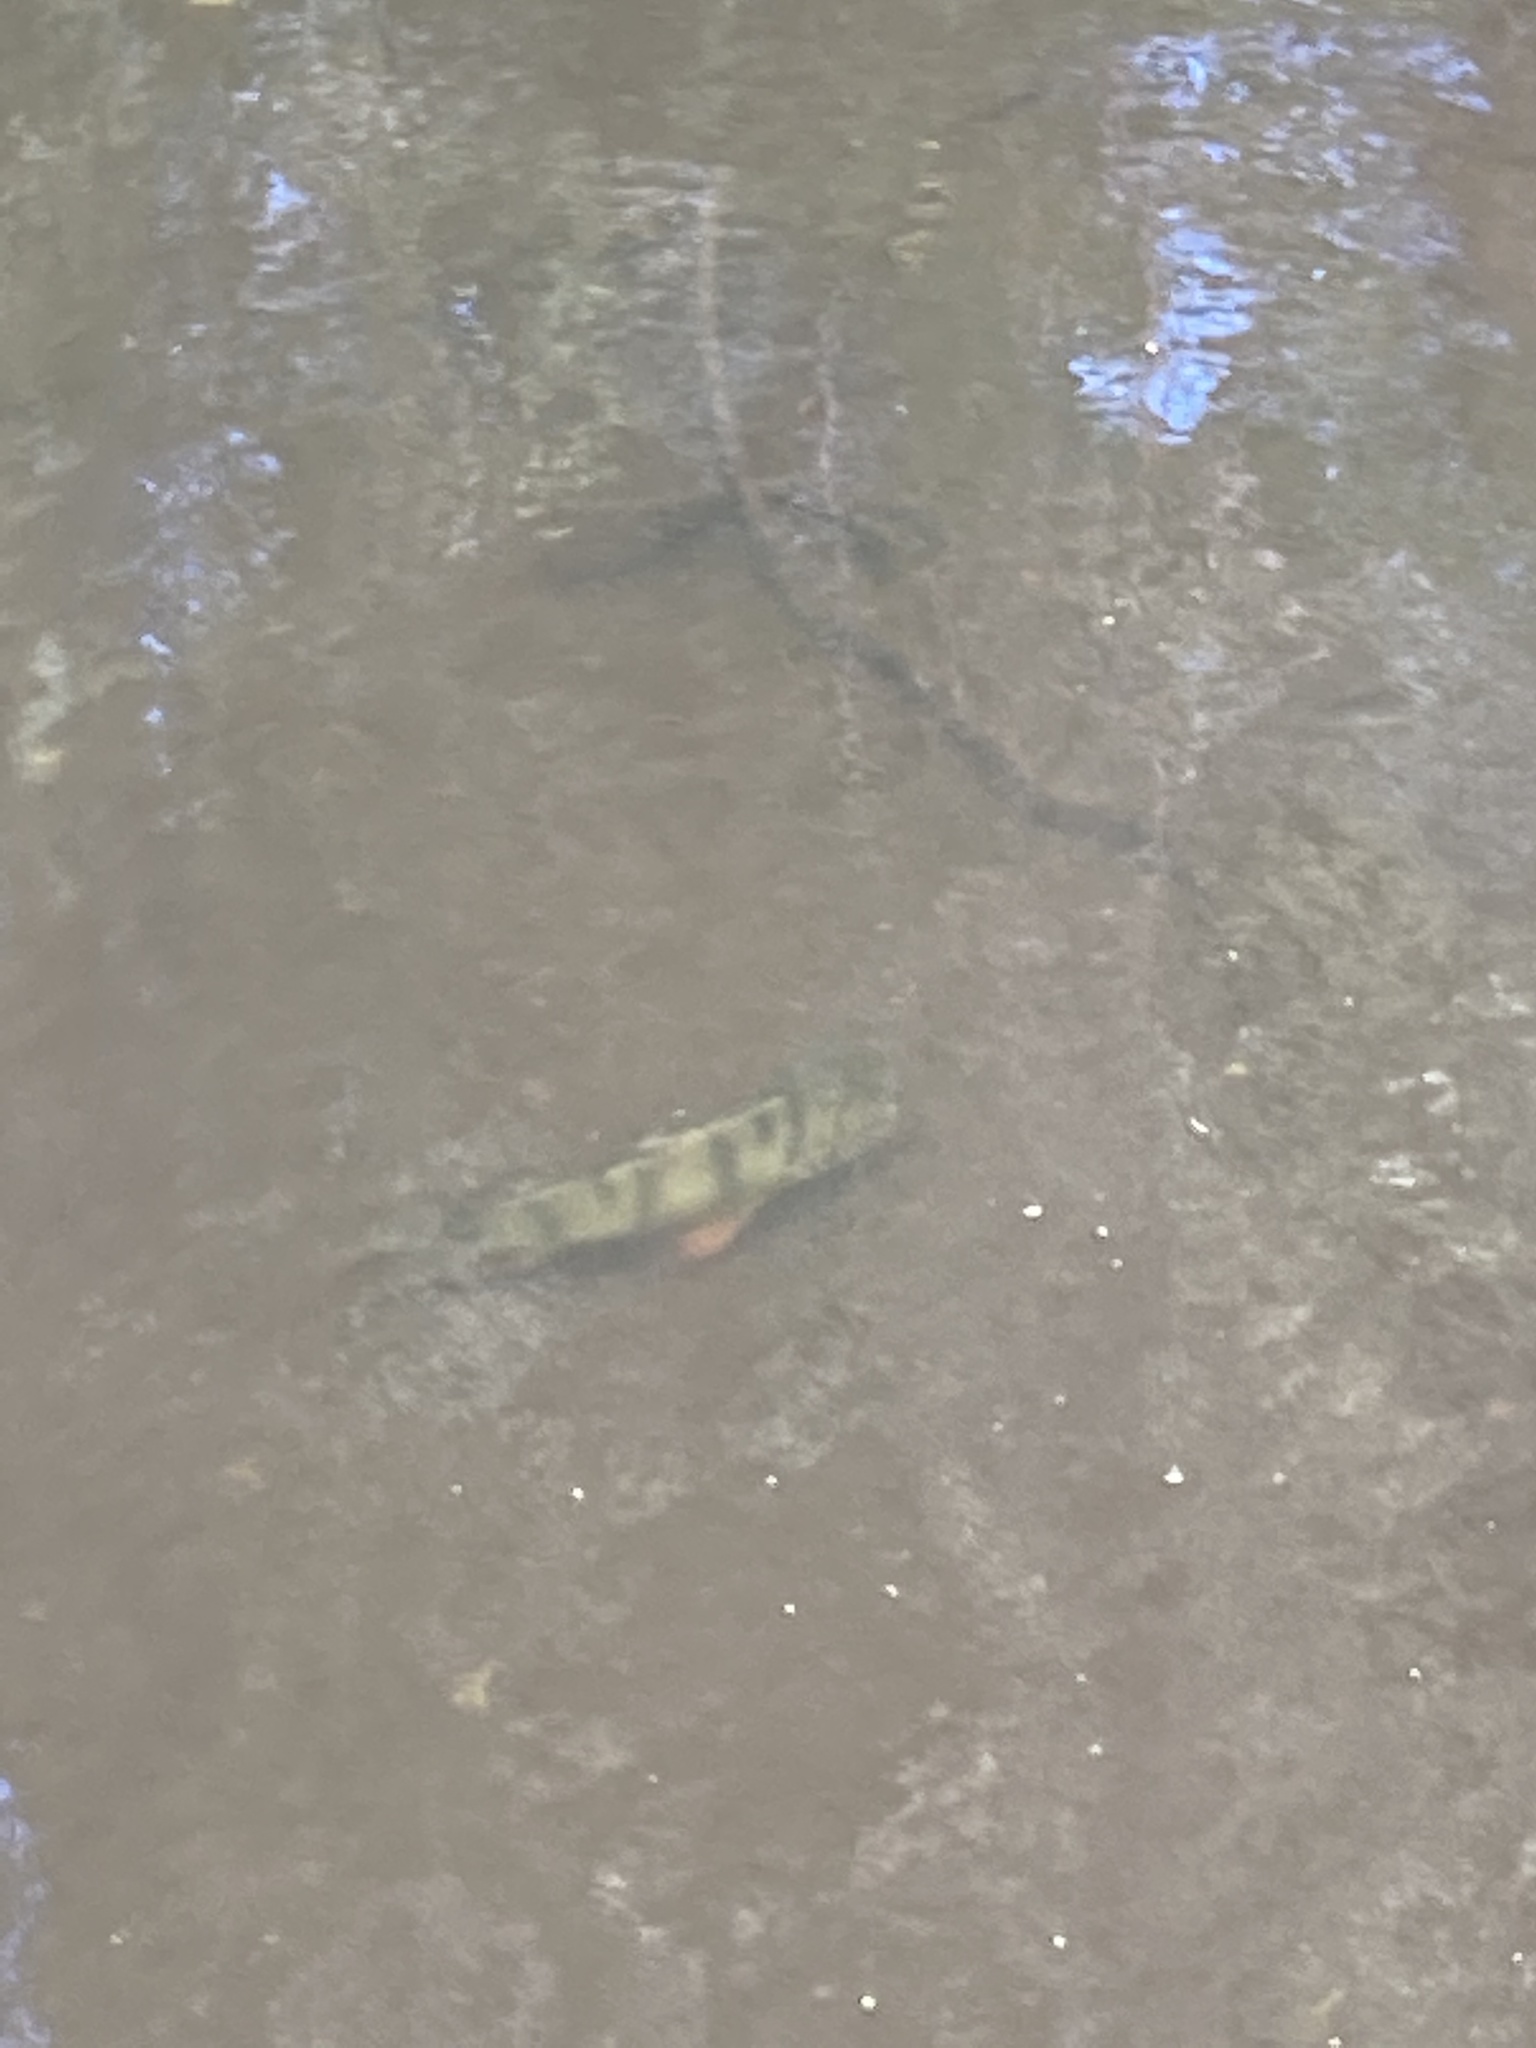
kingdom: Animalia
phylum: Chordata
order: Perciformes
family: Percidae
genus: Perca
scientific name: Perca fluviatilis
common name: Perch
